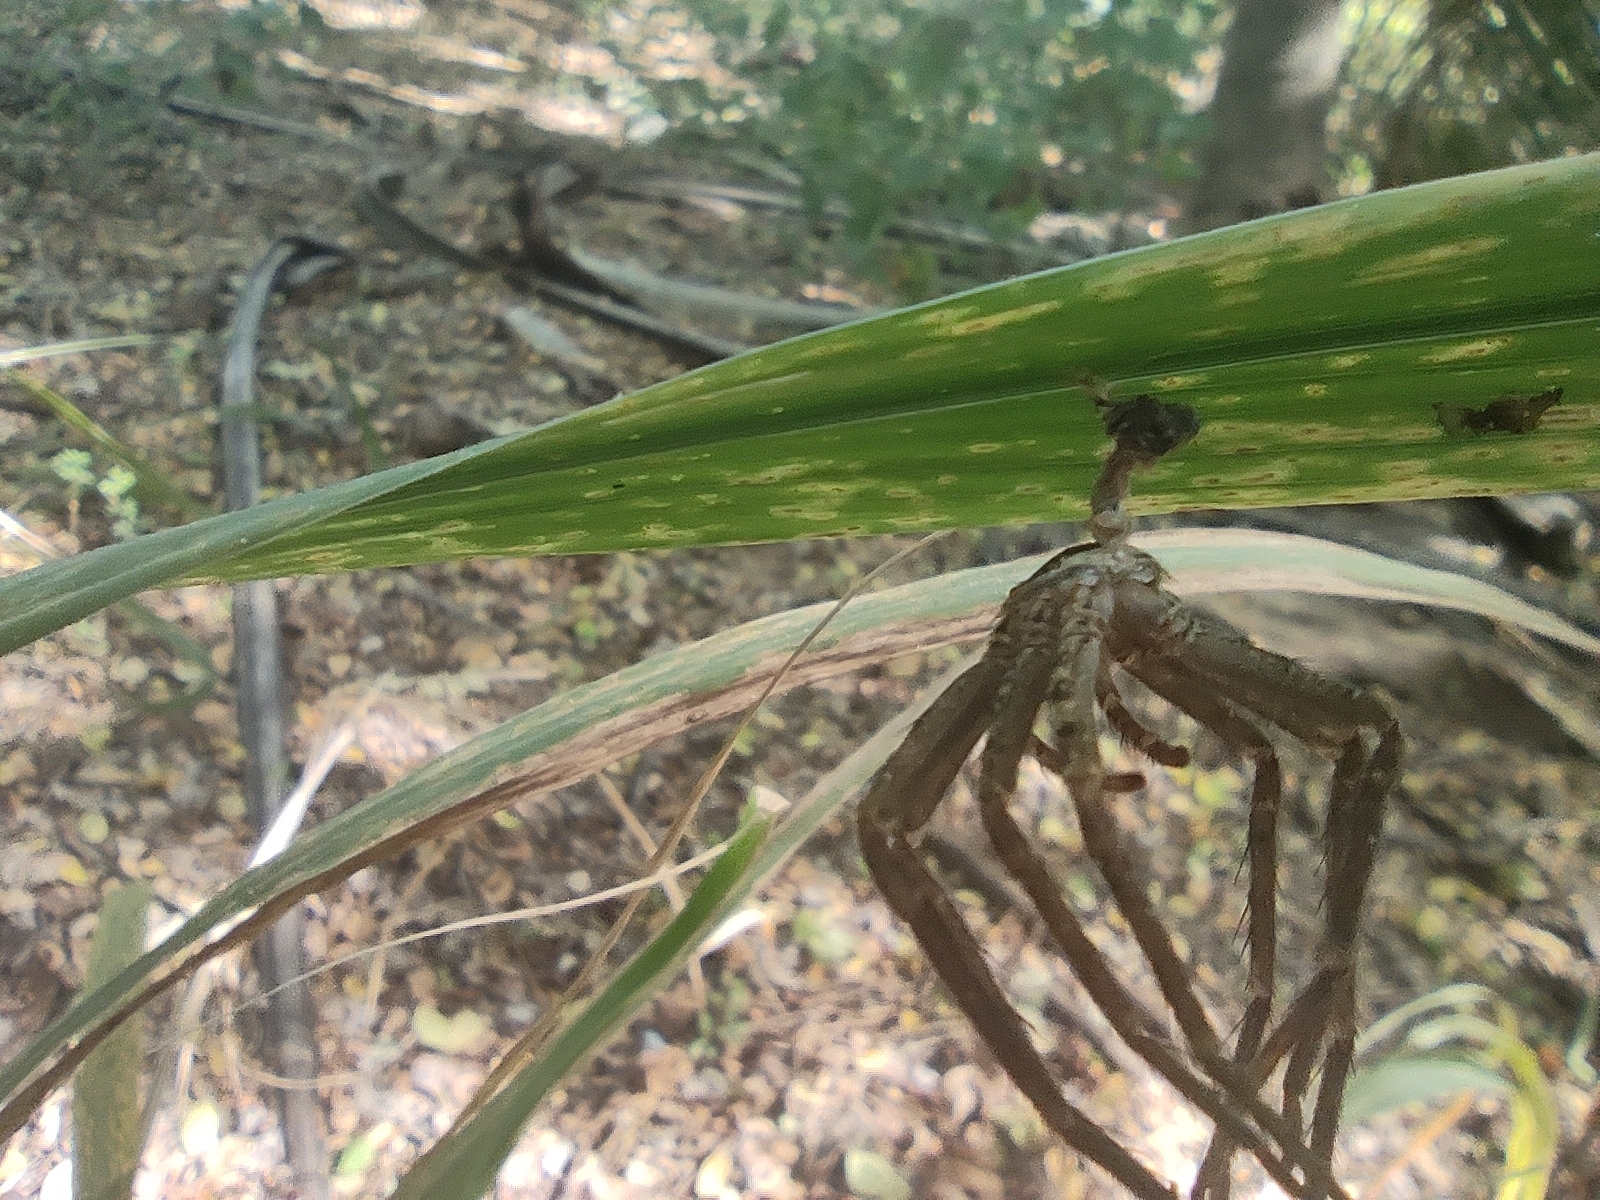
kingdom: Animalia
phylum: Arthropoda
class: Arachnida
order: Araneae
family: Sparassidae
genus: Heteropoda
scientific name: Heteropoda venatoria
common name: Huntsman spider
